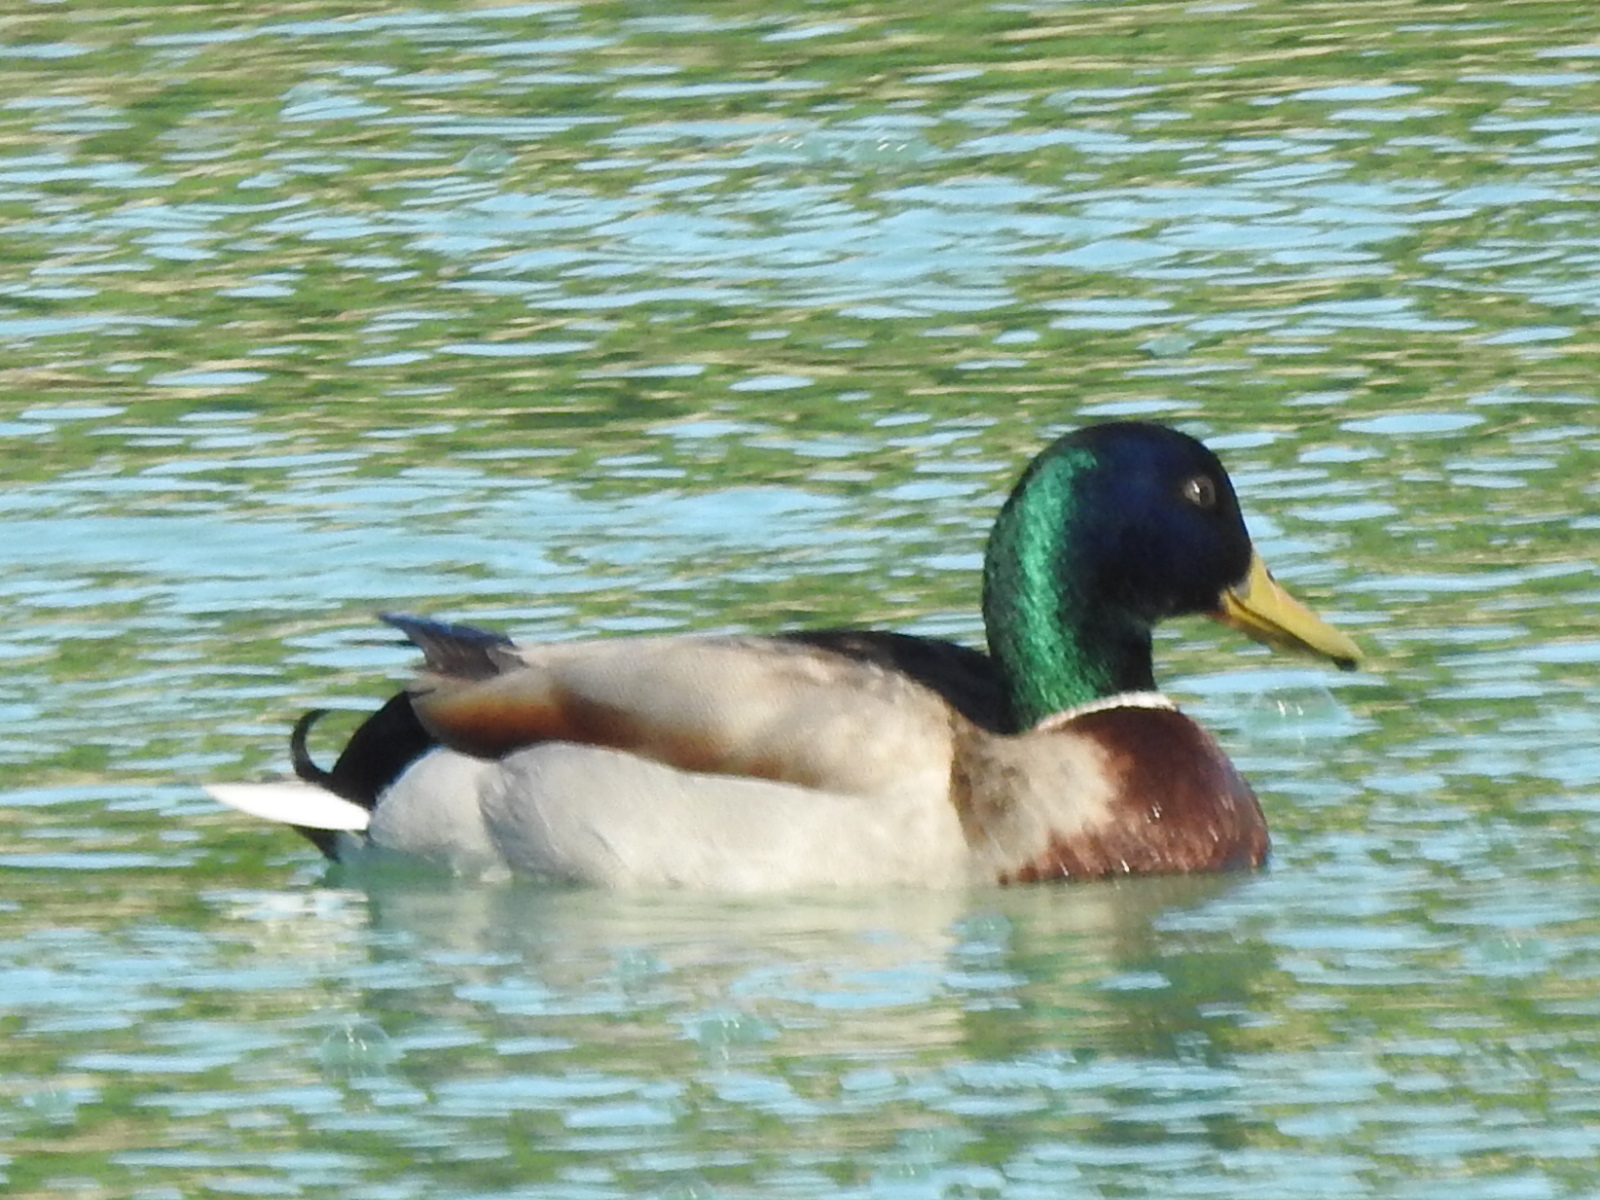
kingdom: Animalia
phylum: Chordata
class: Aves
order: Anseriformes
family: Anatidae
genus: Anas
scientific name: Anas platyrhynchos
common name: Mallard
